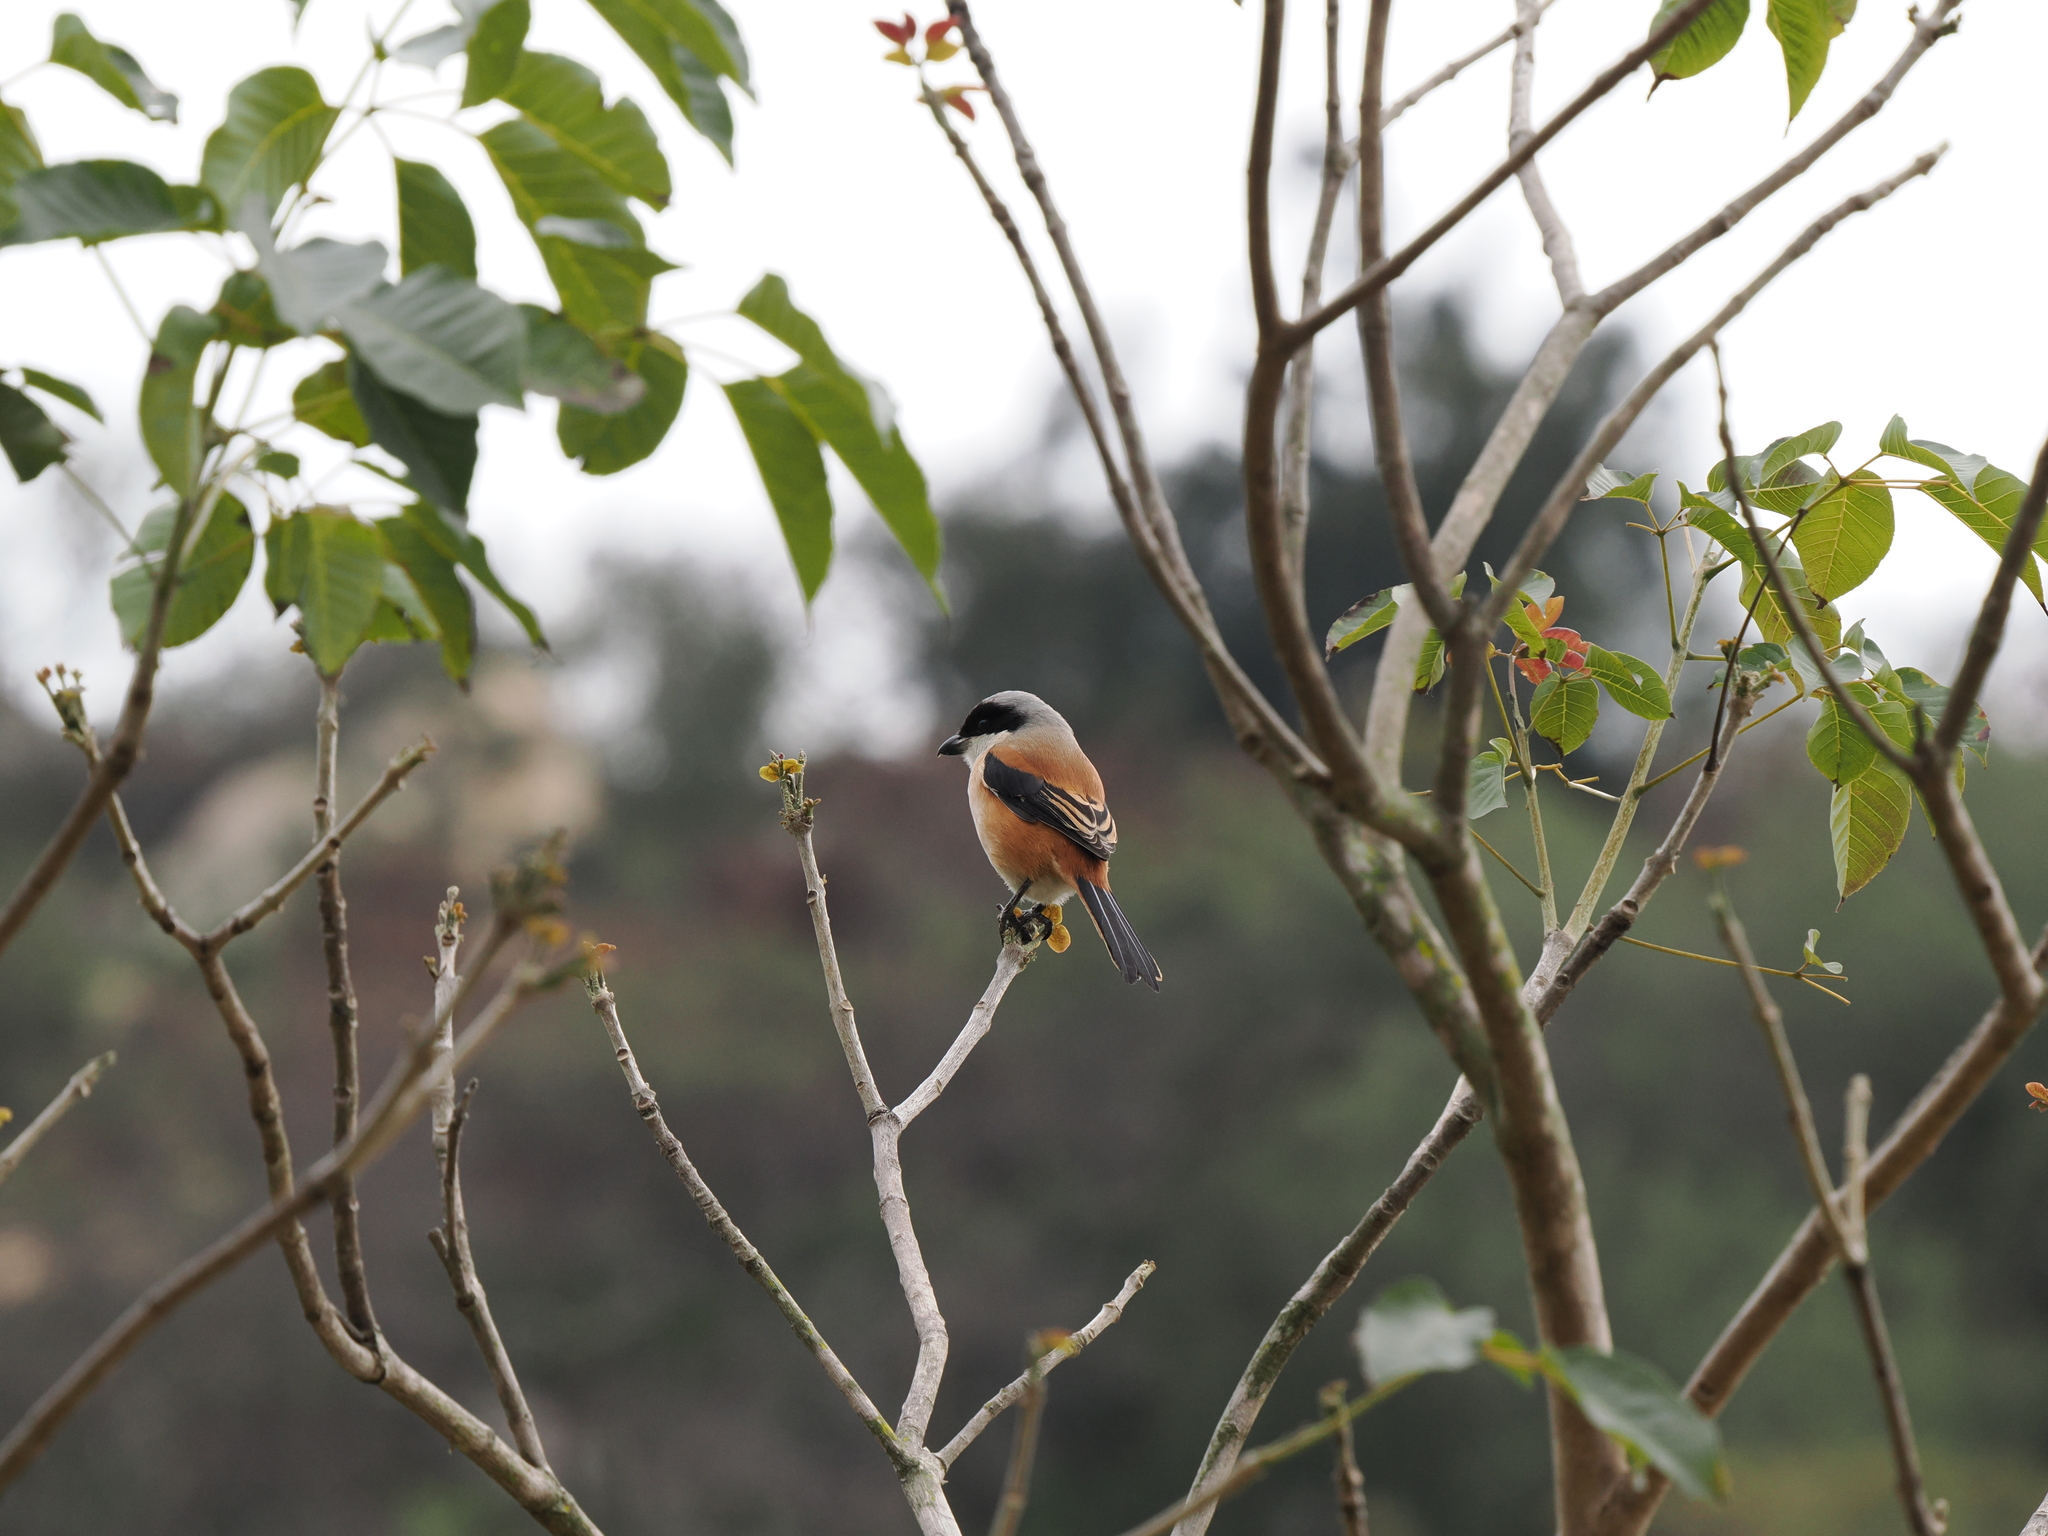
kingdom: Animalia
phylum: Chordata
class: Aves
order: Passeriformes
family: Laniidae
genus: Lanius
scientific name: Lanius schach
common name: Long-tailed shrike
